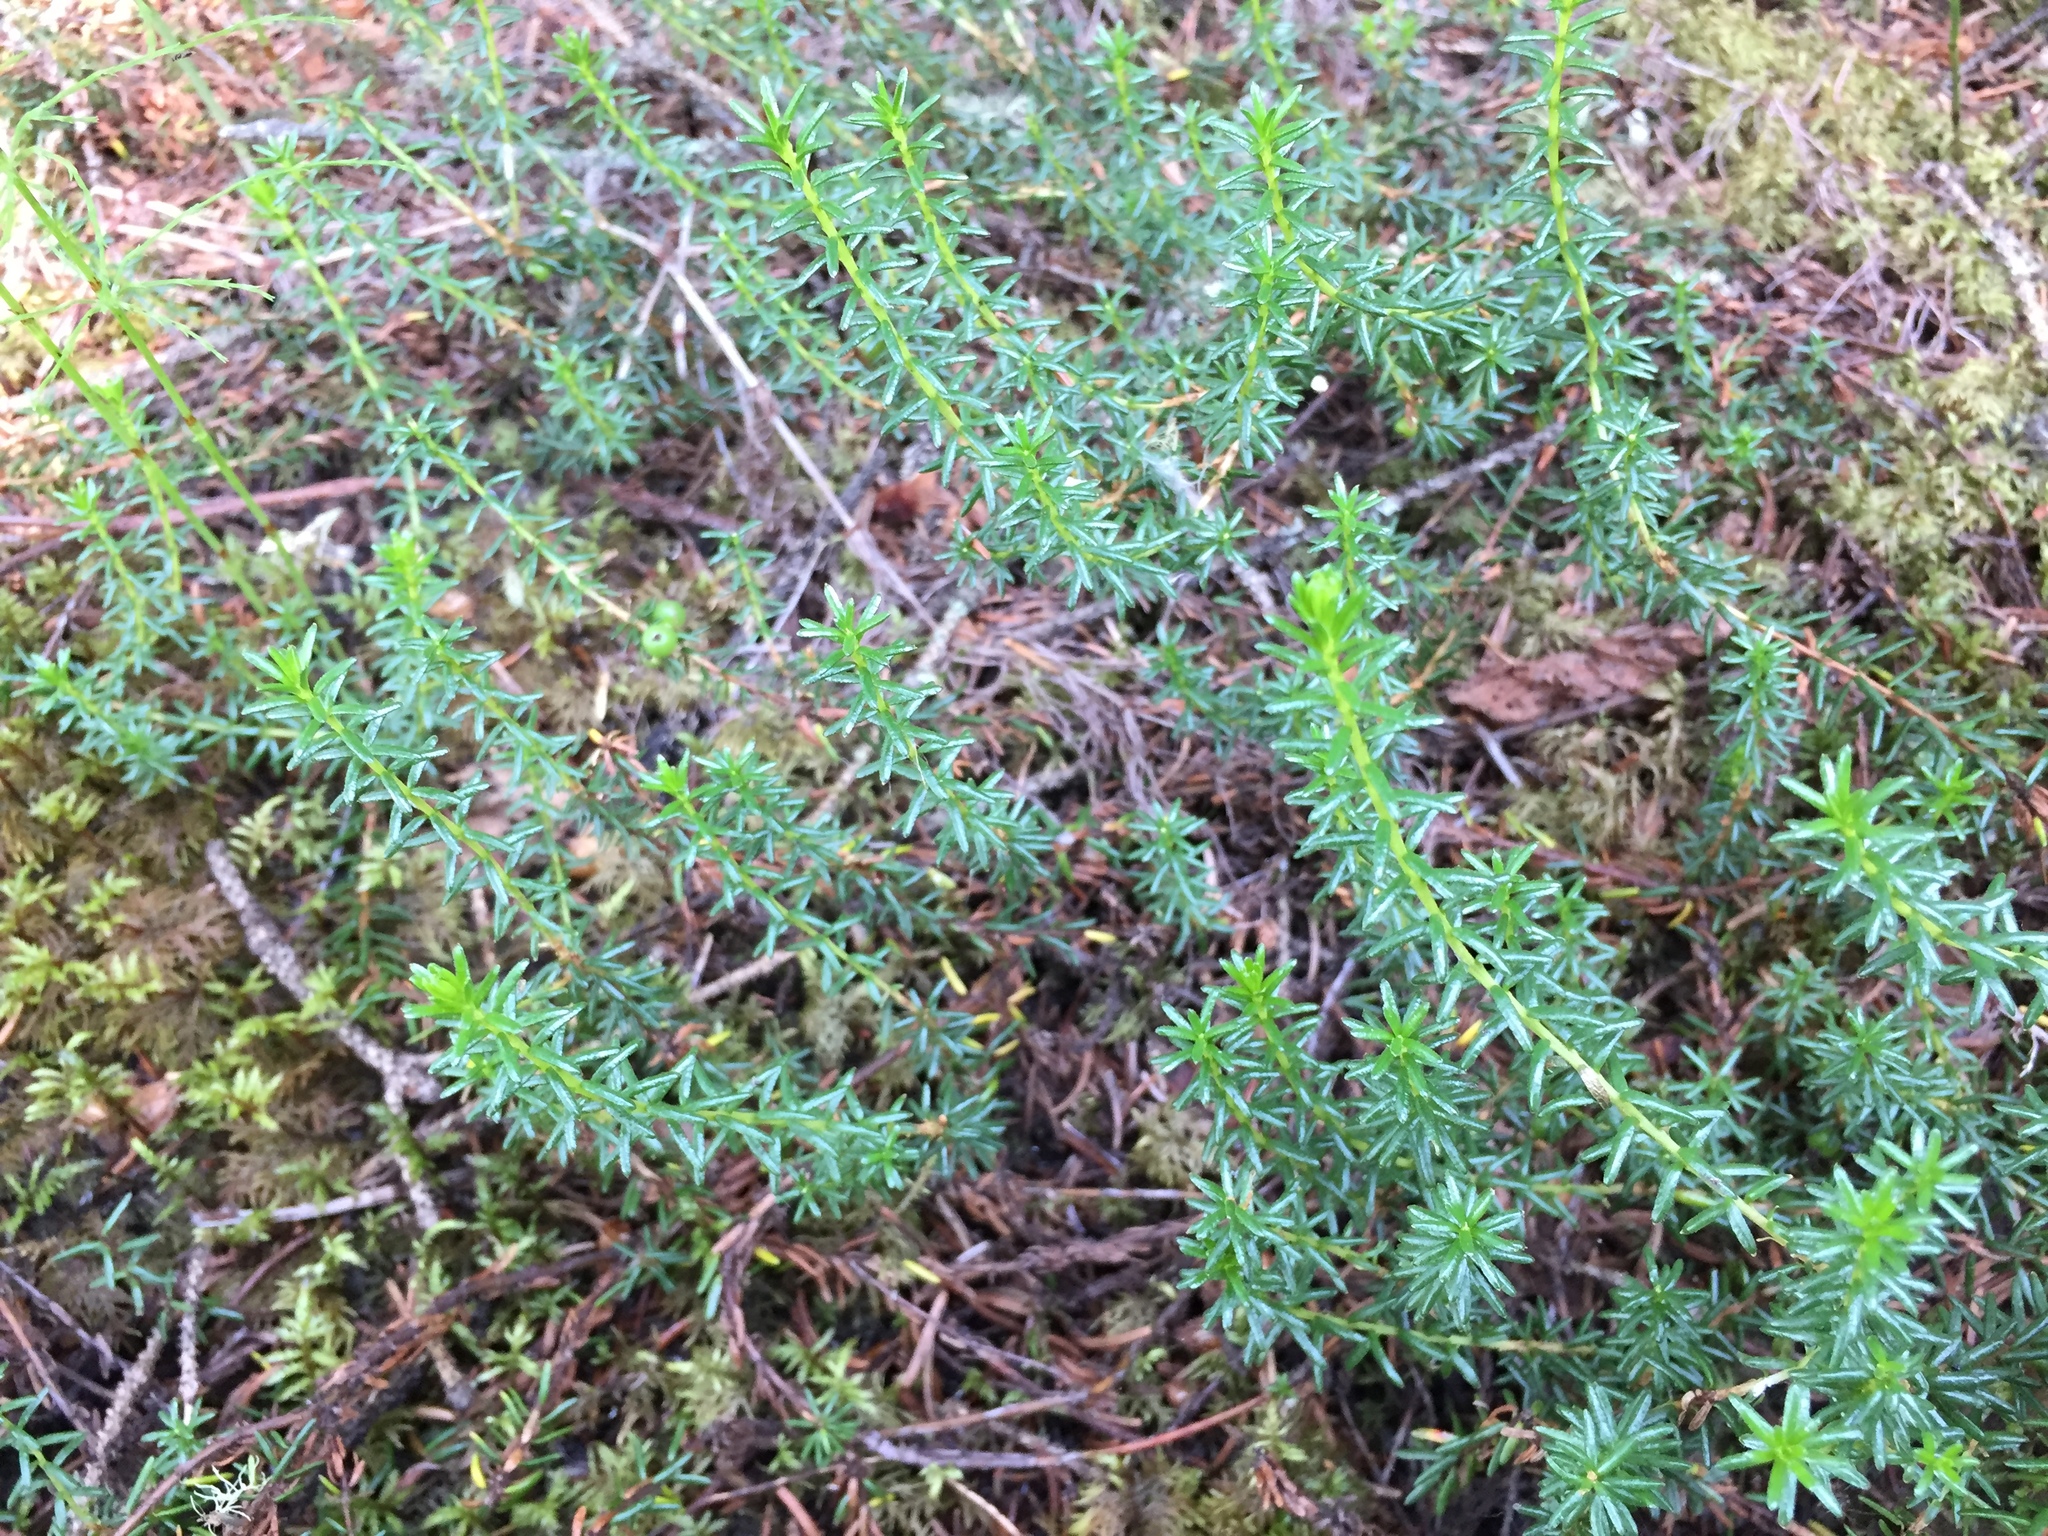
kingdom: Plantae
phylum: Tracheophyta
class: Magnoliopsida
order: Ericales
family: Ericaceae
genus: Empetrum
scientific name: Empetrum nigrum
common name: Black crowberry
